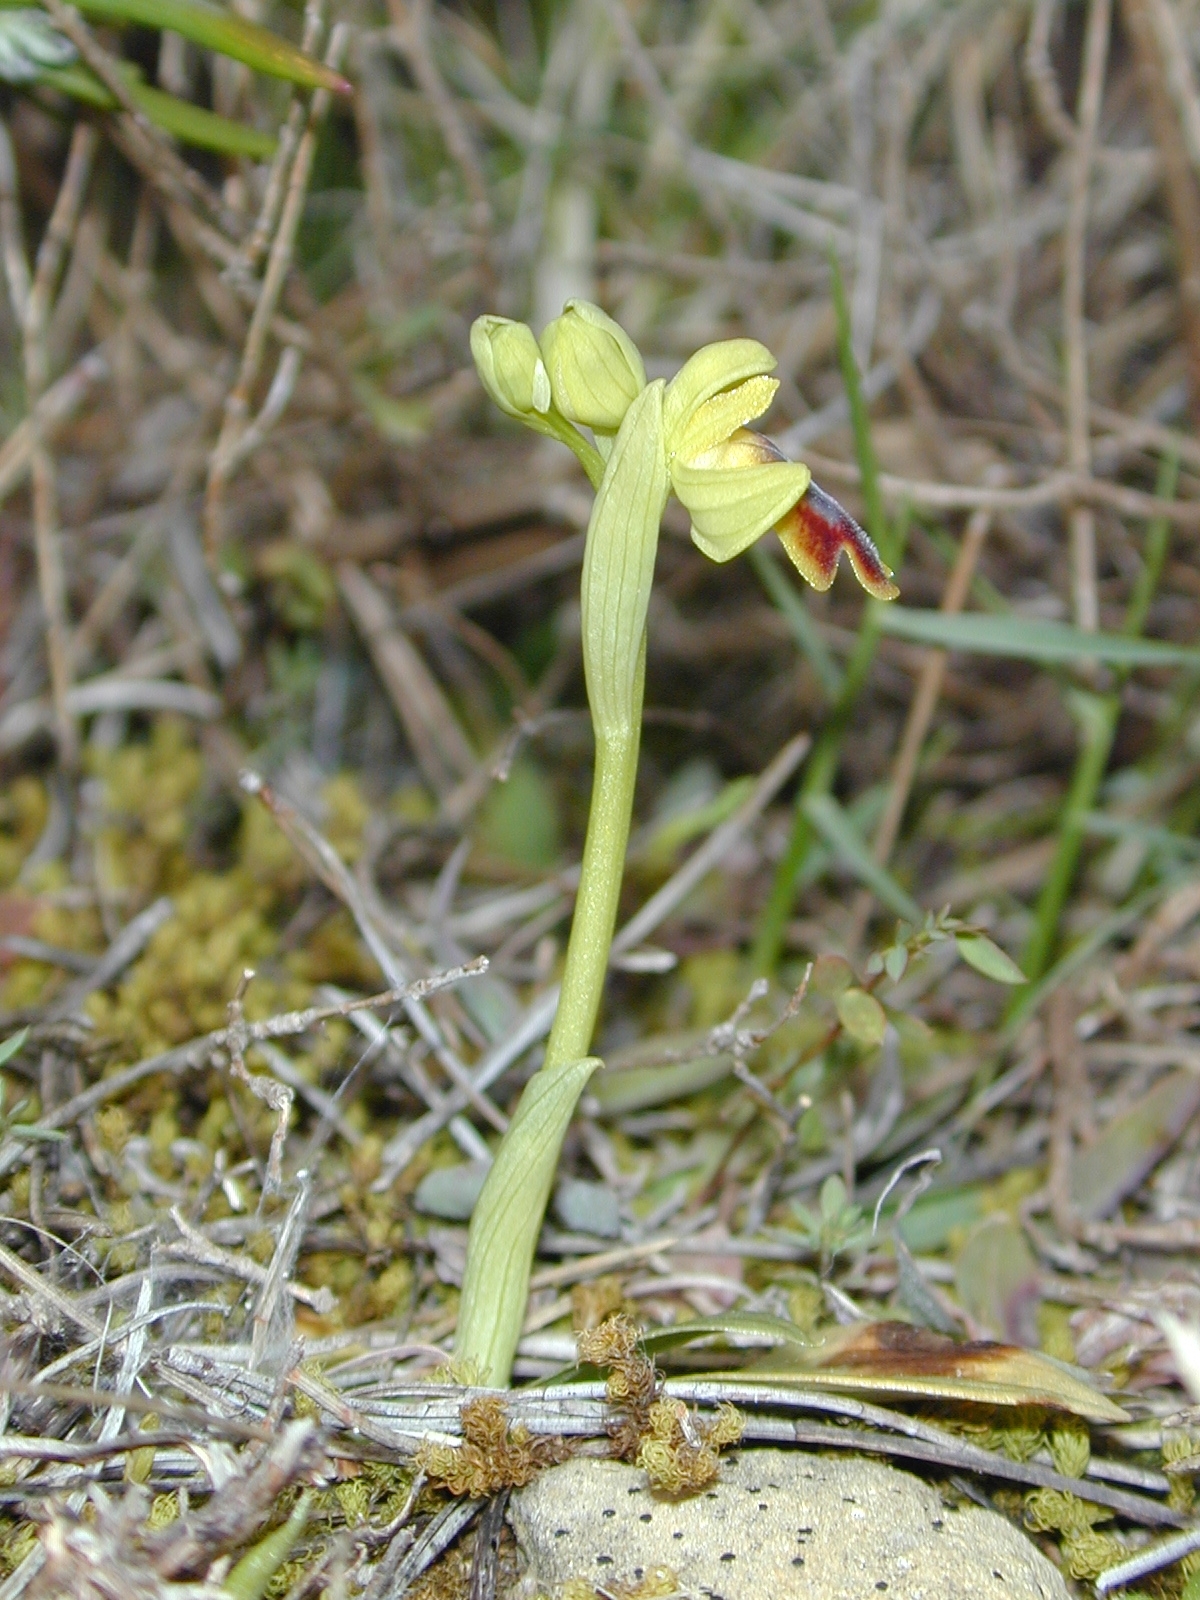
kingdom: Plantae
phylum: Tracheophyta
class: Liliopsida
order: Asparagales
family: Orchidaceae
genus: Ophrys
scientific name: Ophrys fusca
